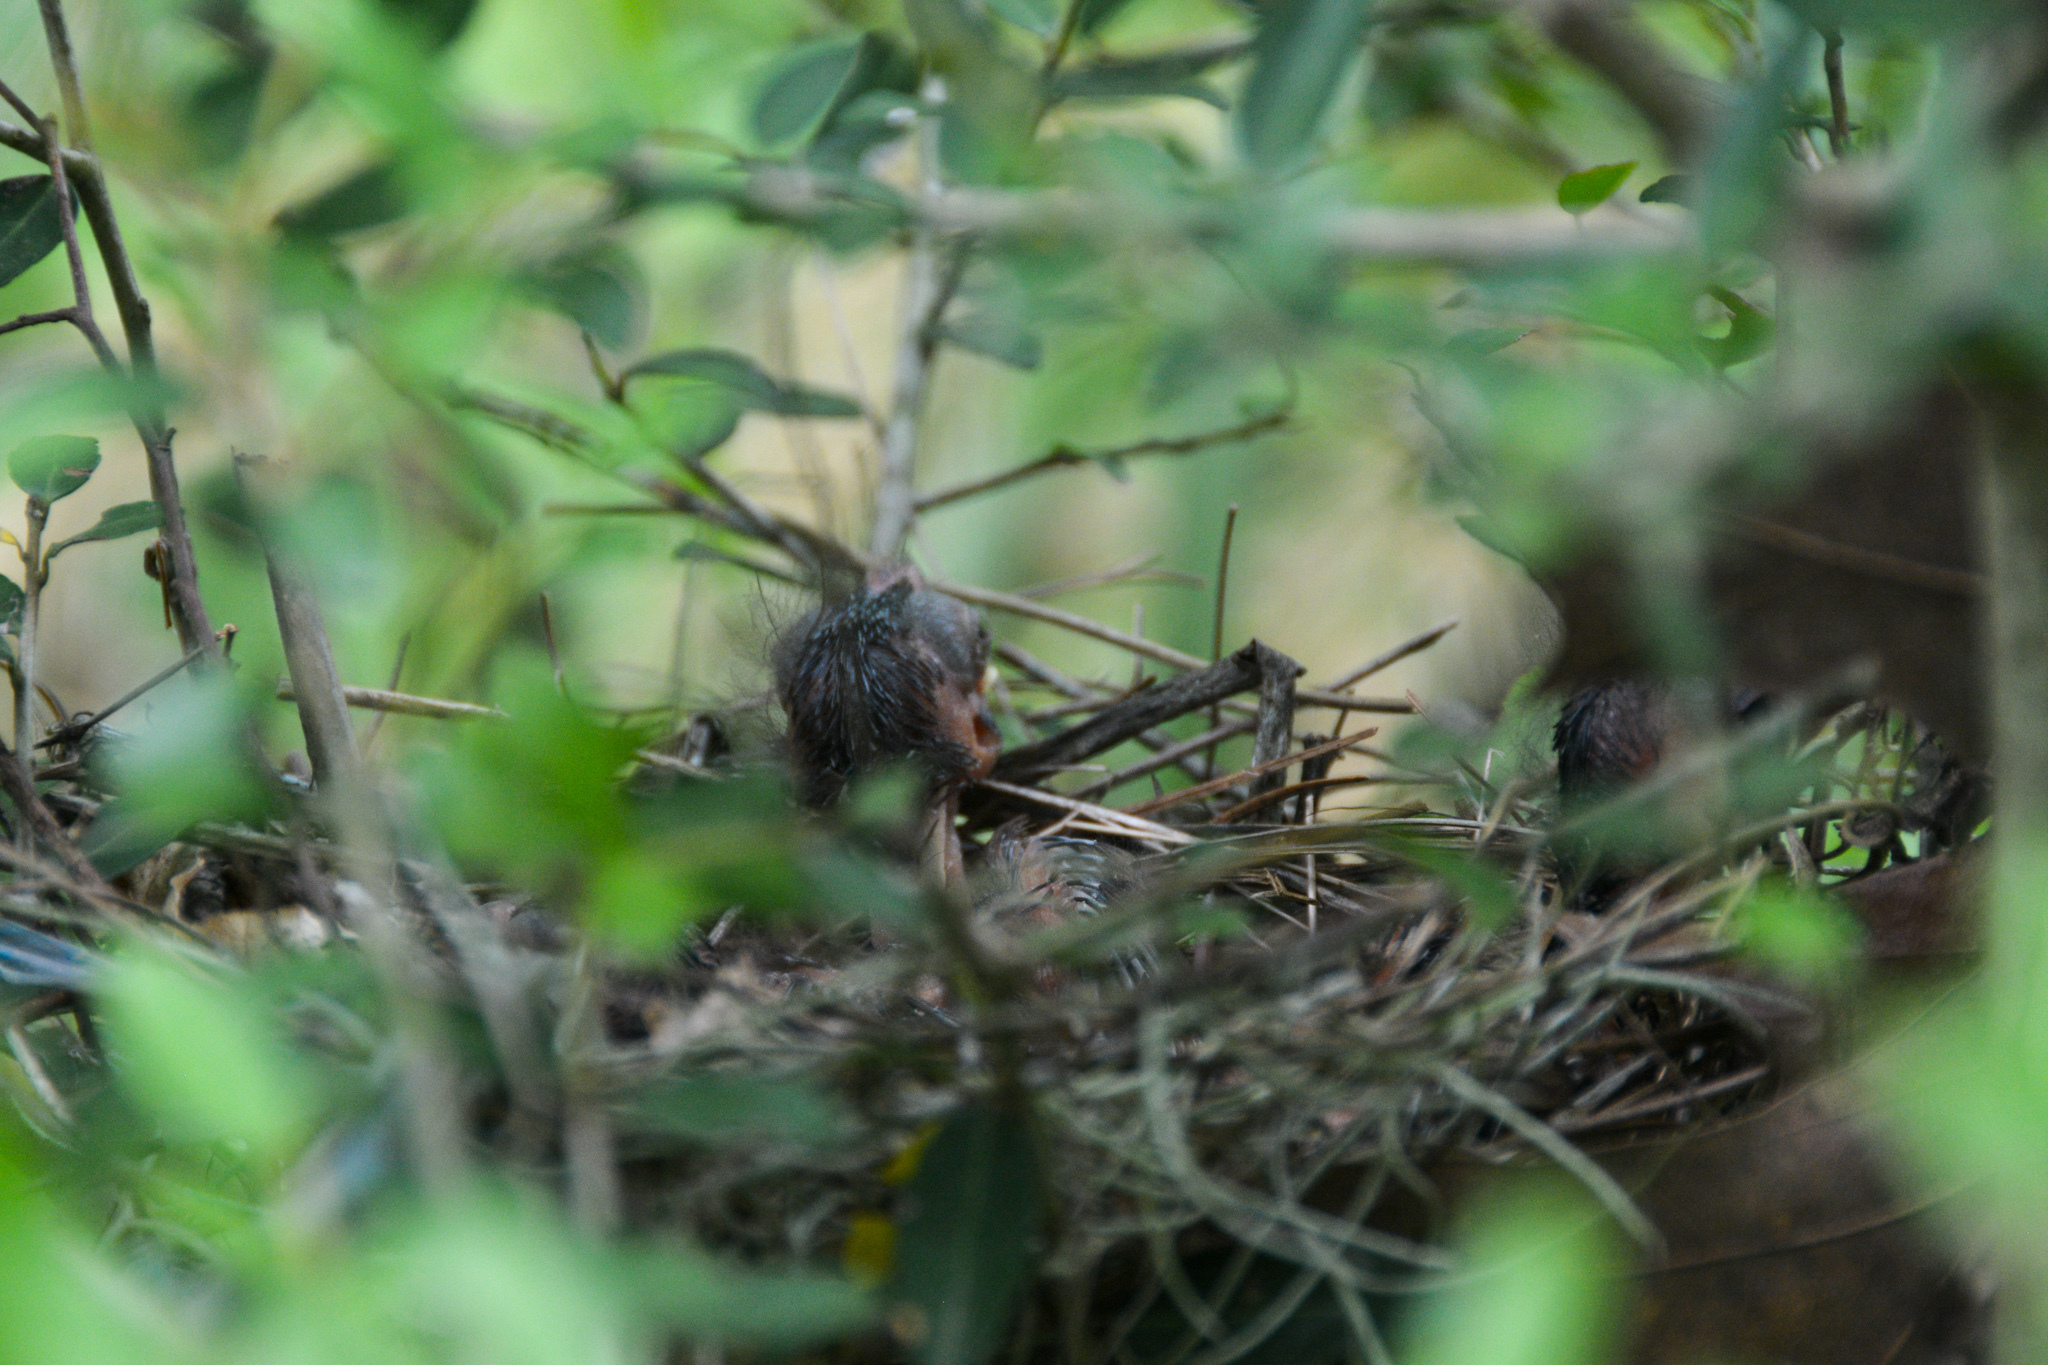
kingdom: Animalia
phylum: Chordata
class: Aves
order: Passeriformes
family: Cardinalidae
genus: Cardinalis
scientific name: Cardinalis cardinalis
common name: Northern cardinal
